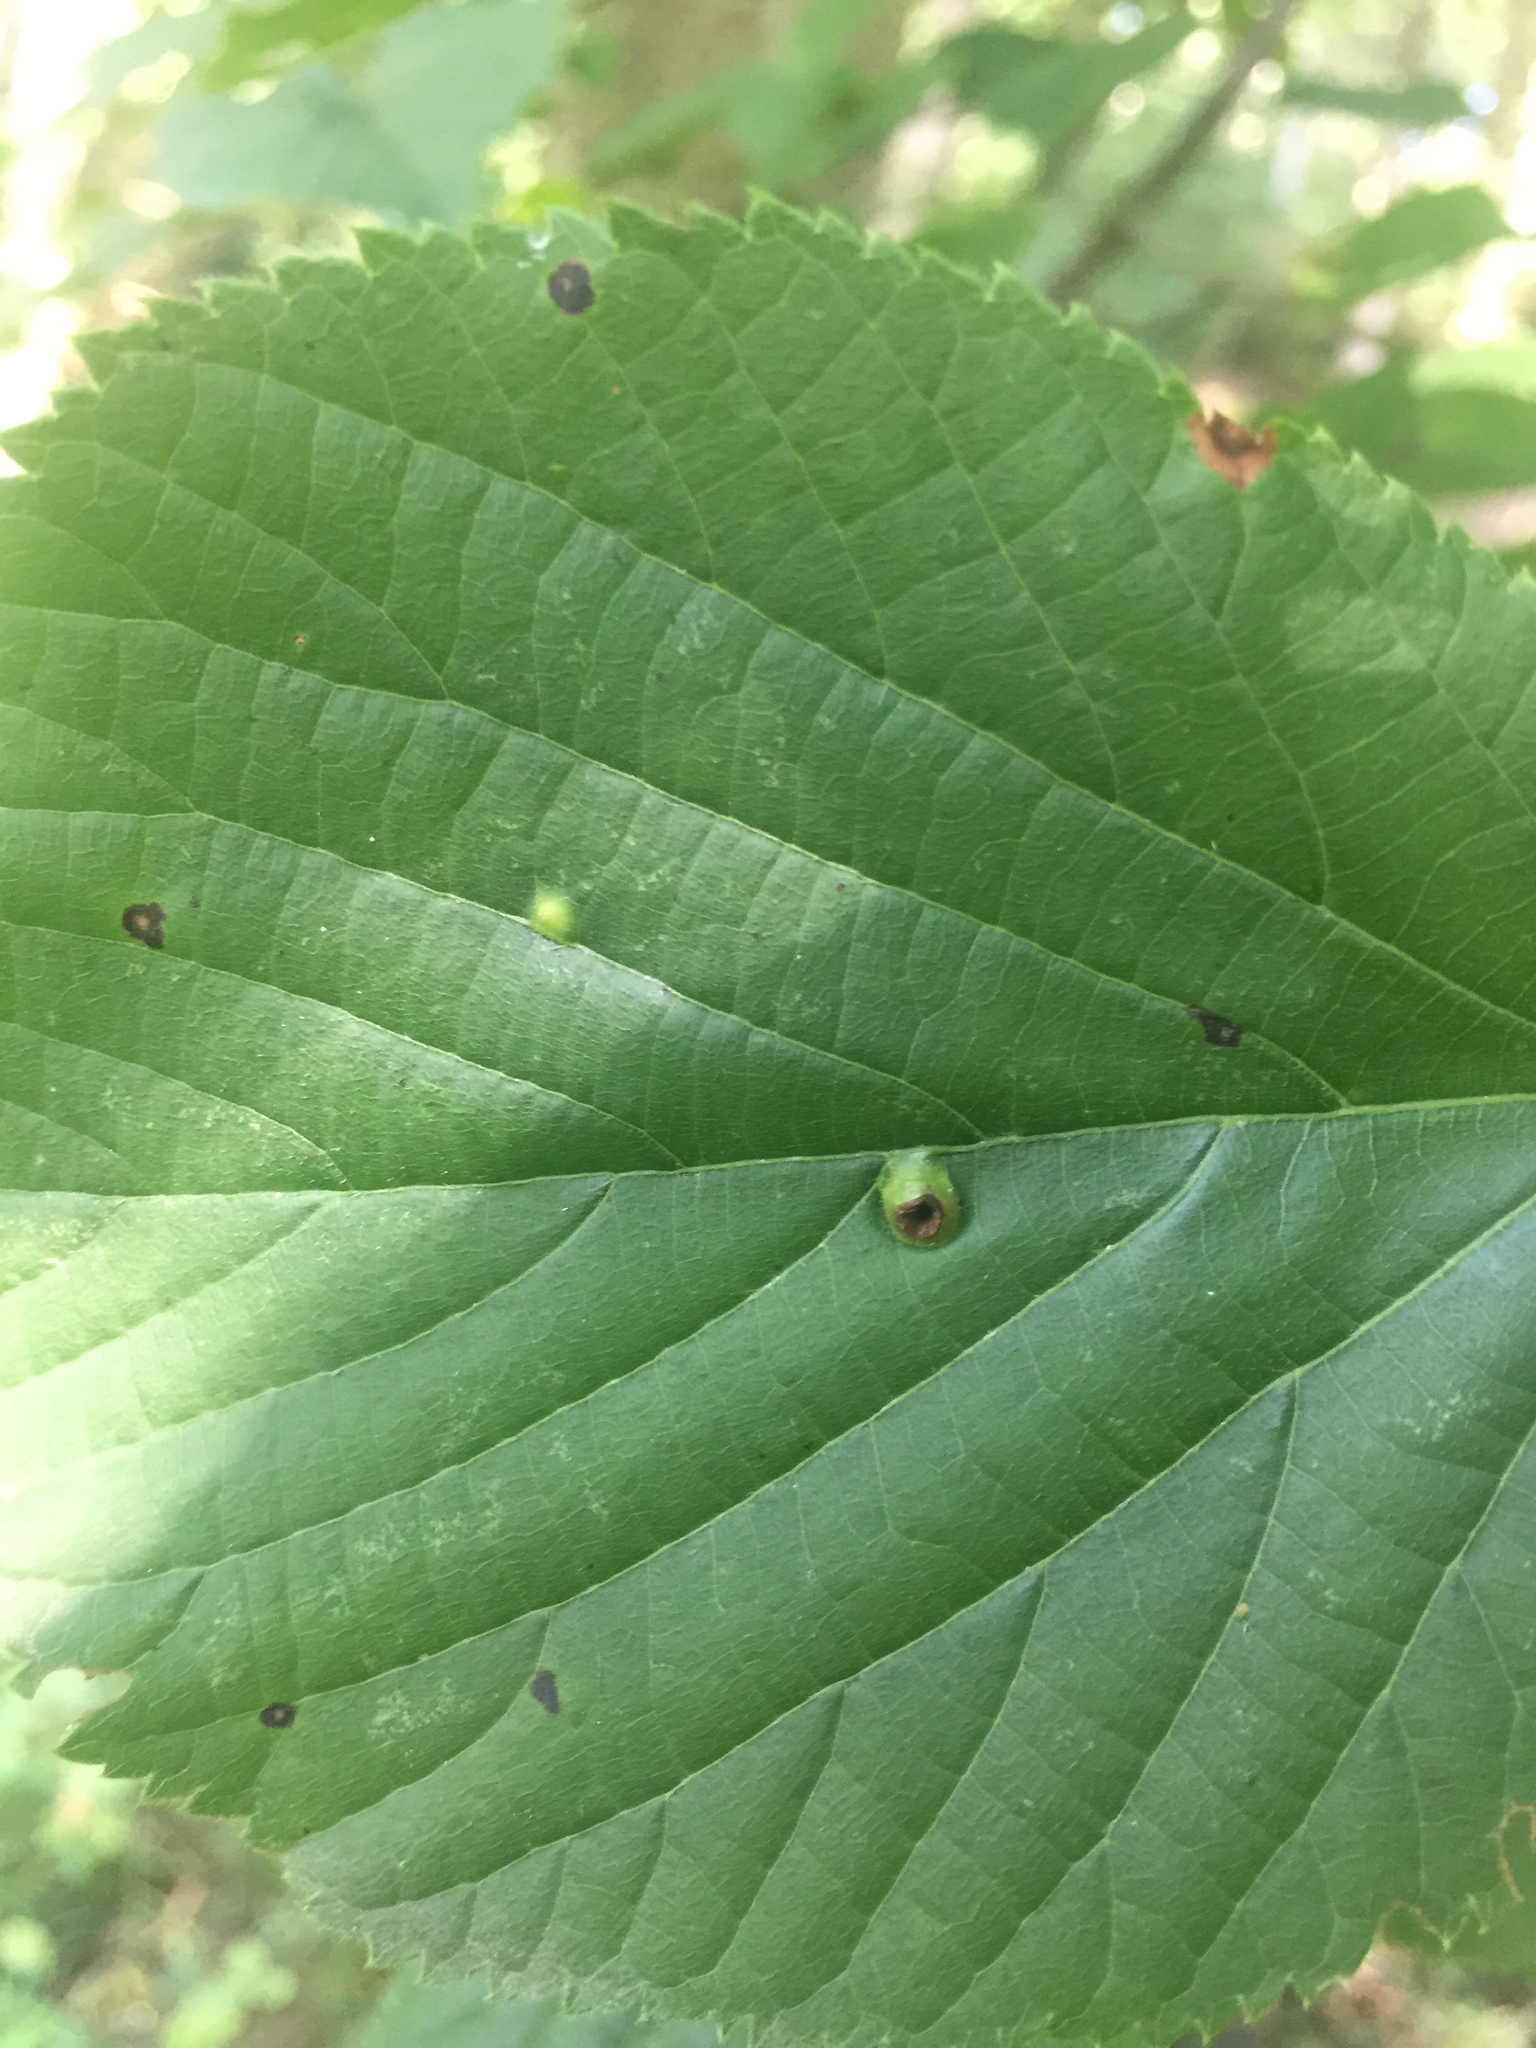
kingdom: Animalia
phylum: Arthropoda
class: Insecta
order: Diptera
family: Cecidomyiidae
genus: Didymomyia
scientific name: Didymomyia tiliacea
